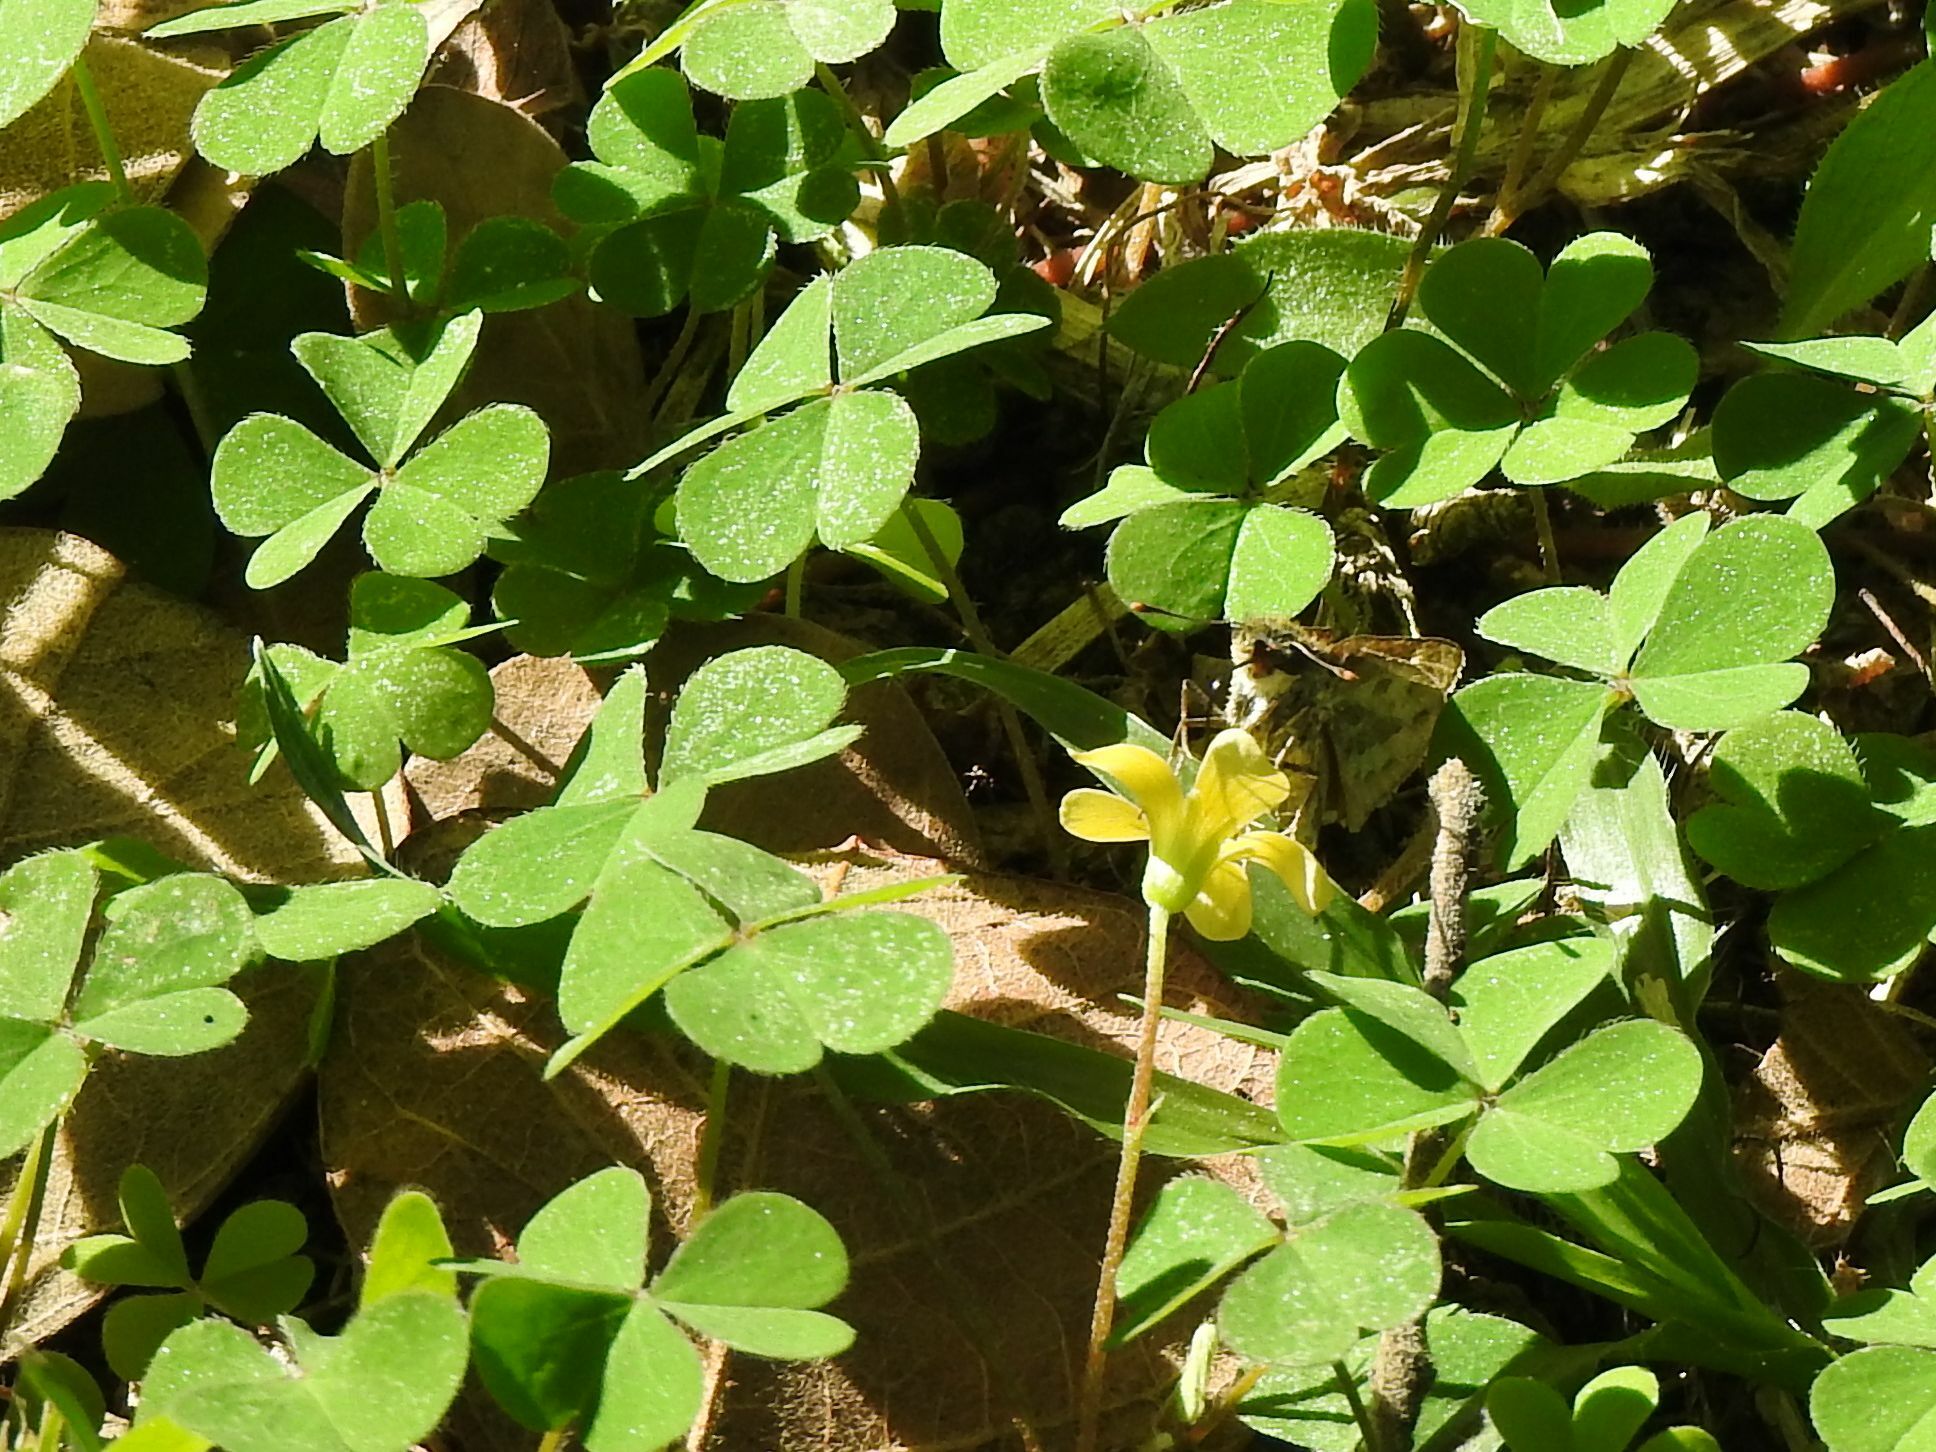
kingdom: Plantae
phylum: Tracheophyta
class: Magnoliopsida
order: Oxalidales
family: Oxalidaceae
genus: Oxalis
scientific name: Oxalis corniculata
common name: Procumbent yellow-sorrel
